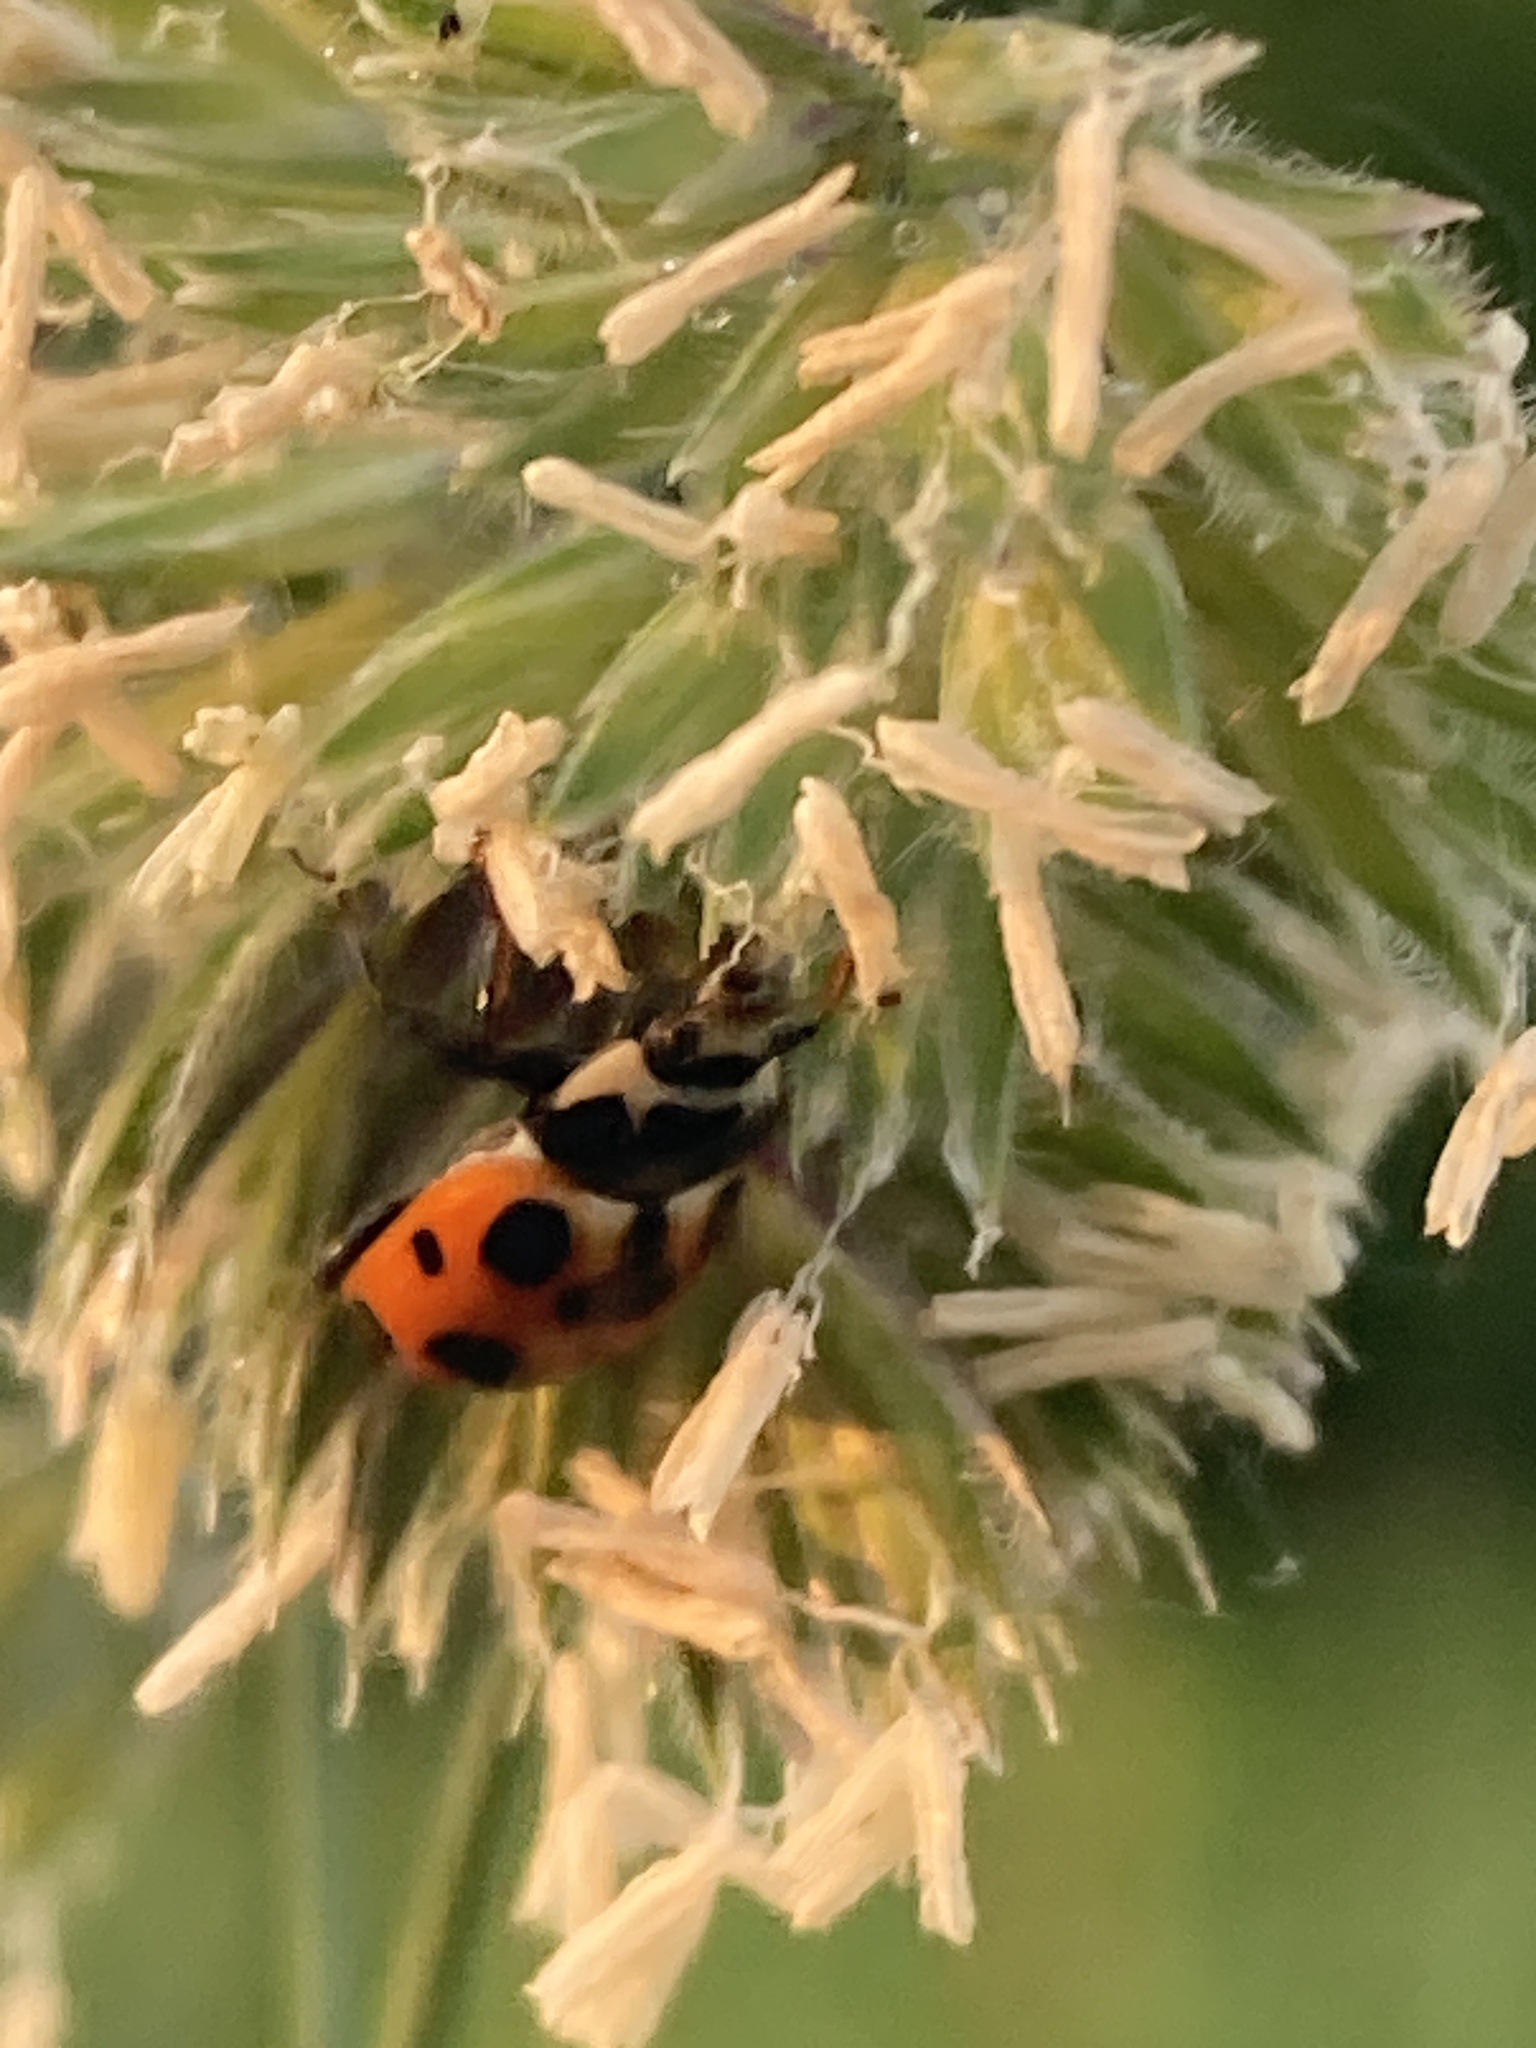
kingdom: Animalia
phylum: Arthropoda
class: Insecta
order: Coleoptera
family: Coccinellidae
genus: Ceratomegilla
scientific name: Ceratomegilla notata
